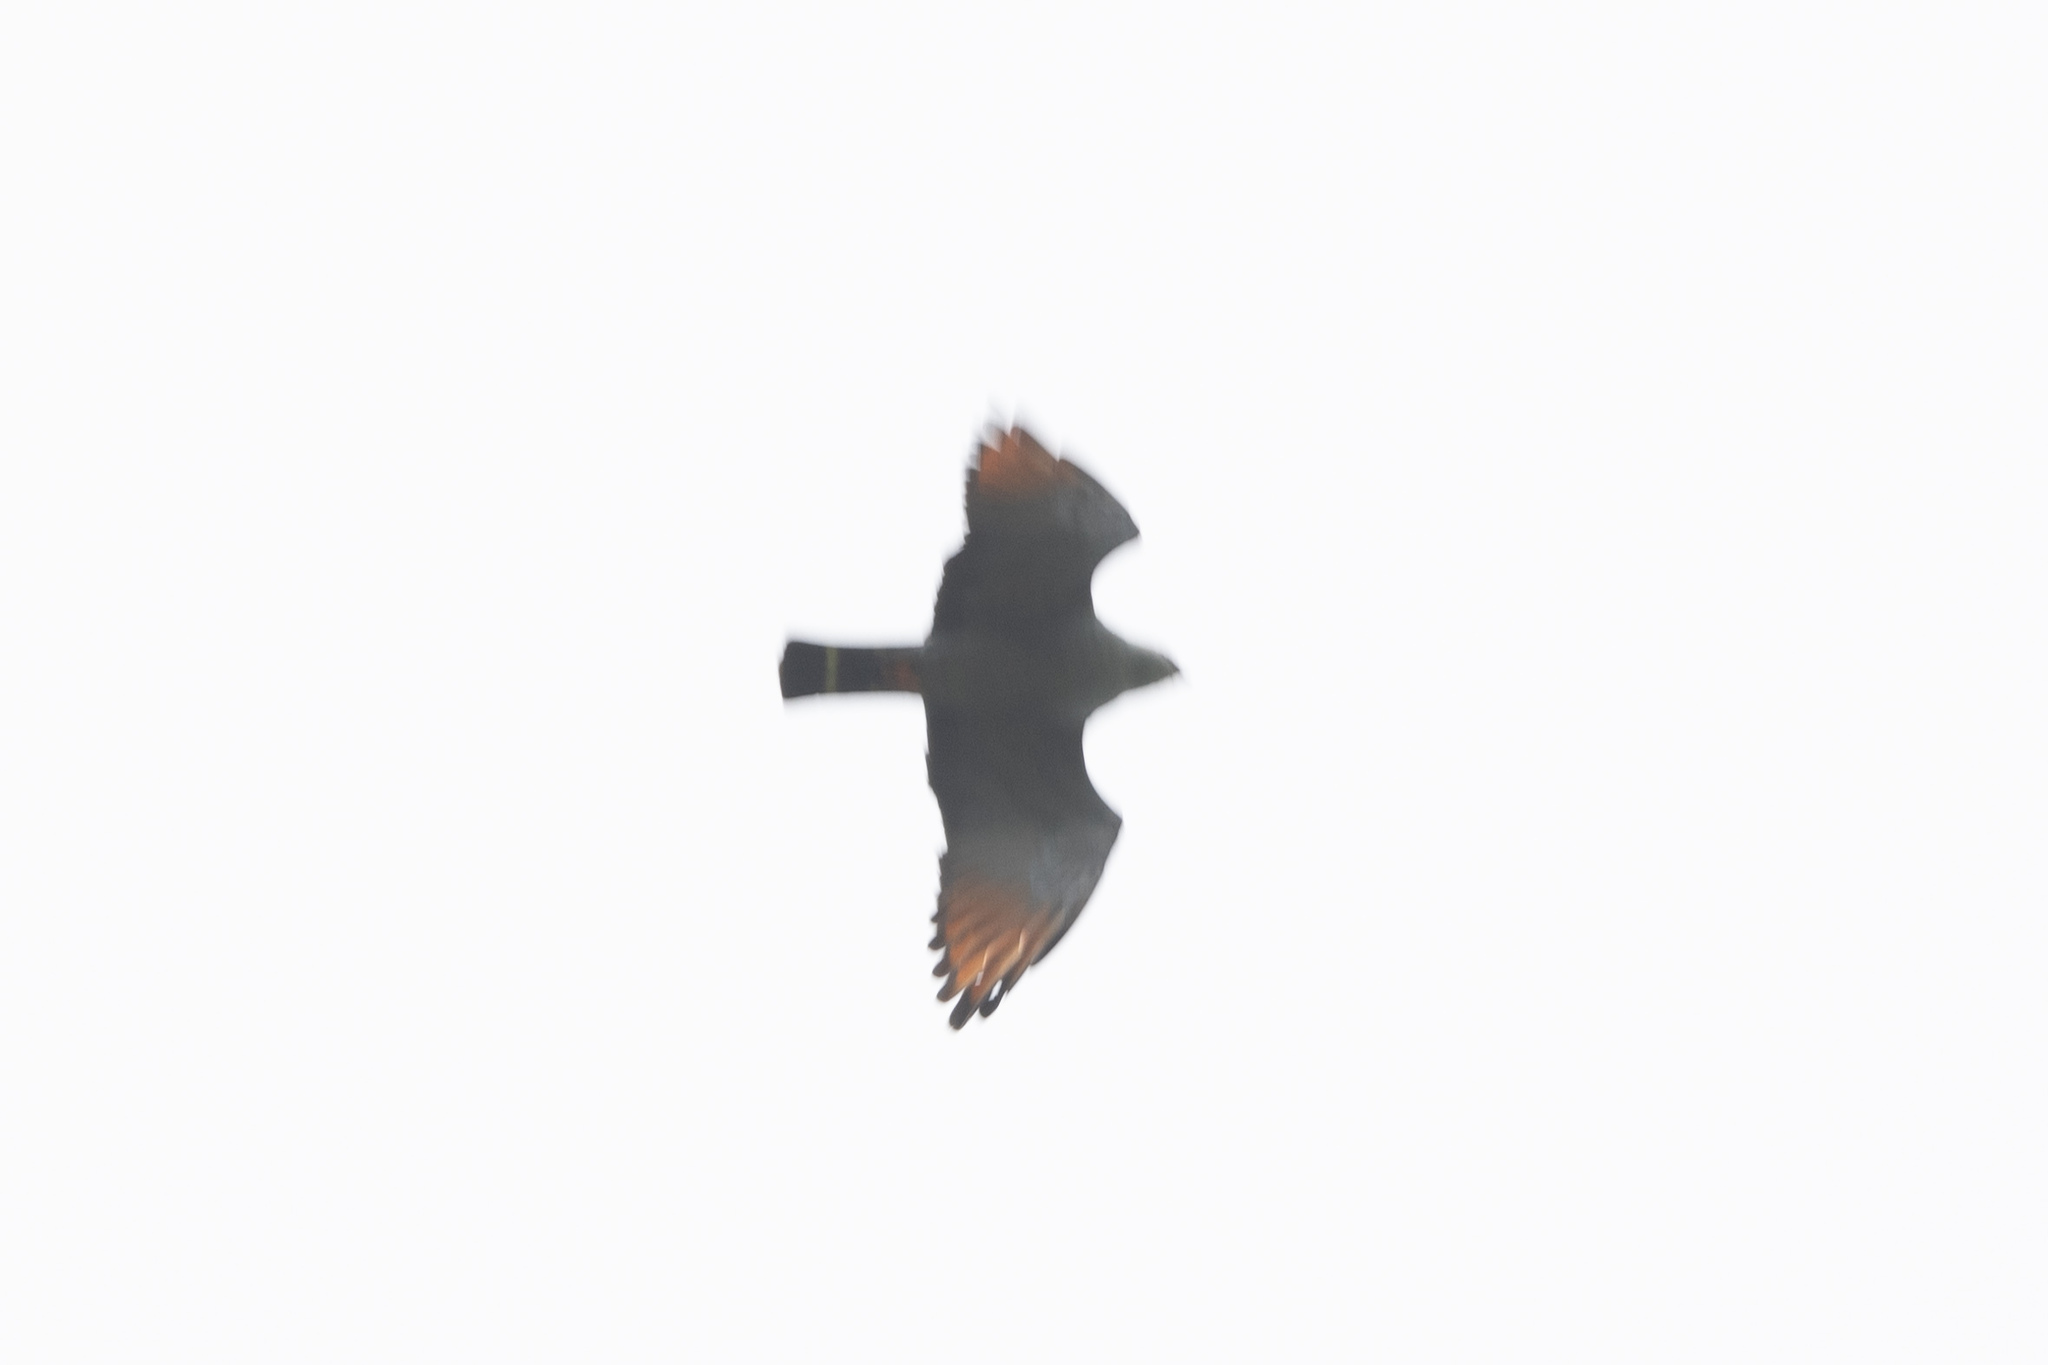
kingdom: Animalia
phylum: Chordata
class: Aves
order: Accipitriformes
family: Accipitridae
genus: Ictinia
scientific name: Ictinia plumbea
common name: Plumbeous kite
